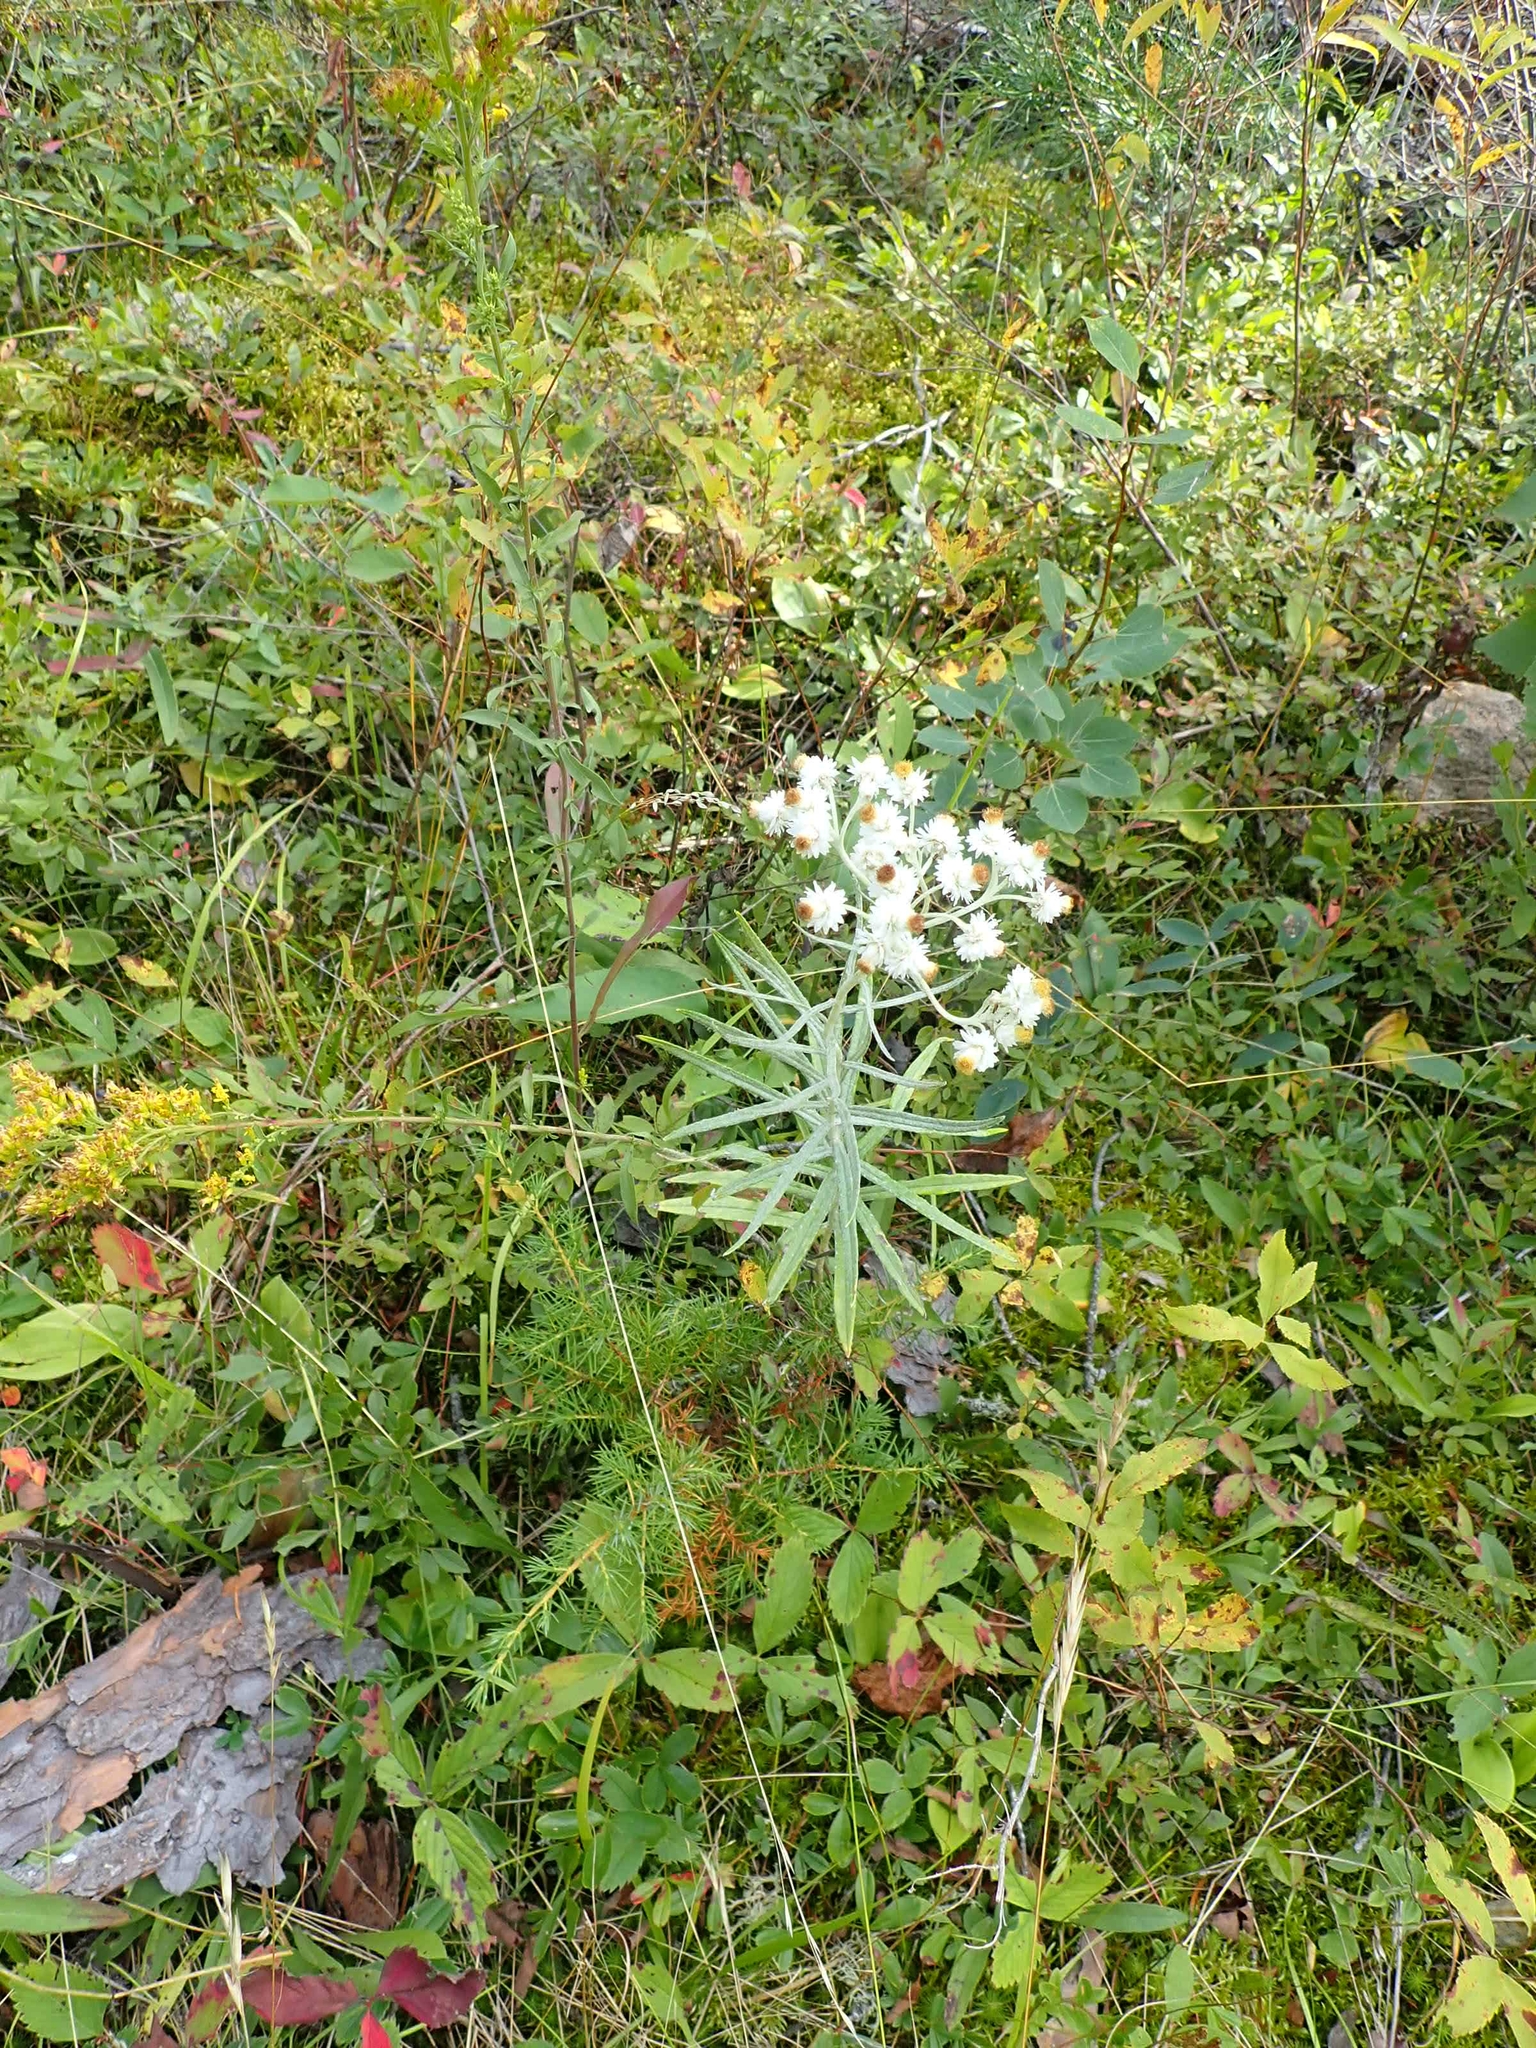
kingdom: Plantae
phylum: Tracheophyta
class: Magnoliopsida
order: Asterales
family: Asteraceae
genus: Anaphalis
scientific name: Anaphalis margaritacea
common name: Pearly everlasting
